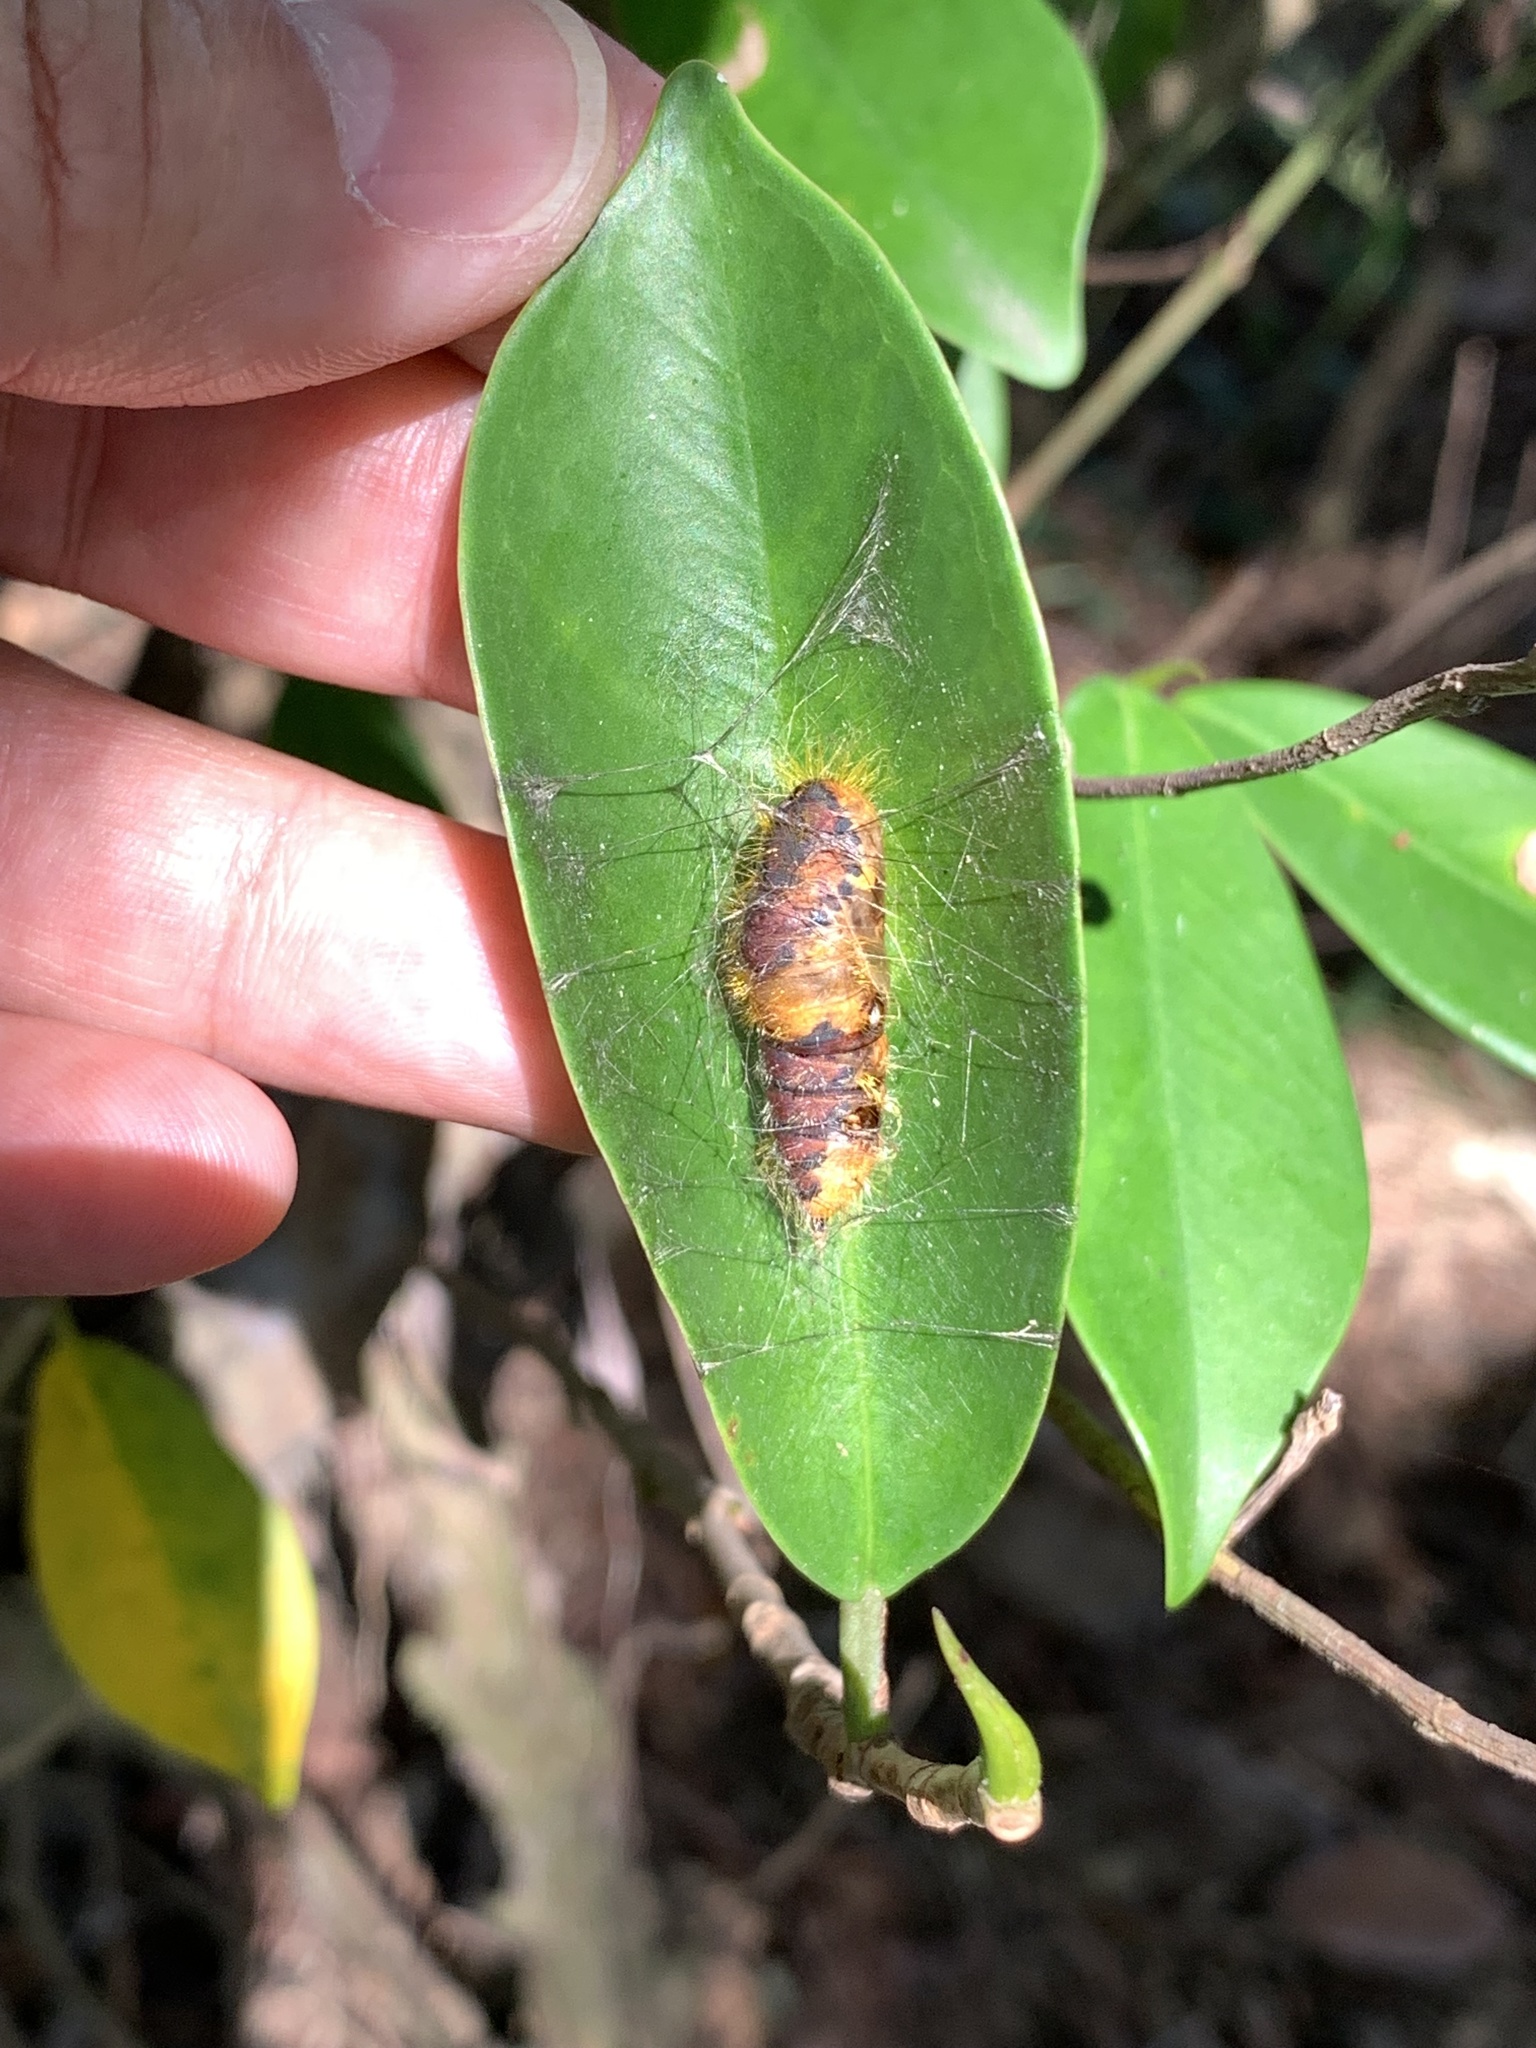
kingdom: Animalia
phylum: Arthropoda
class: Insecta
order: Lepidoptera
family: Erebidae
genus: Perina
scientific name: Perina nuda
